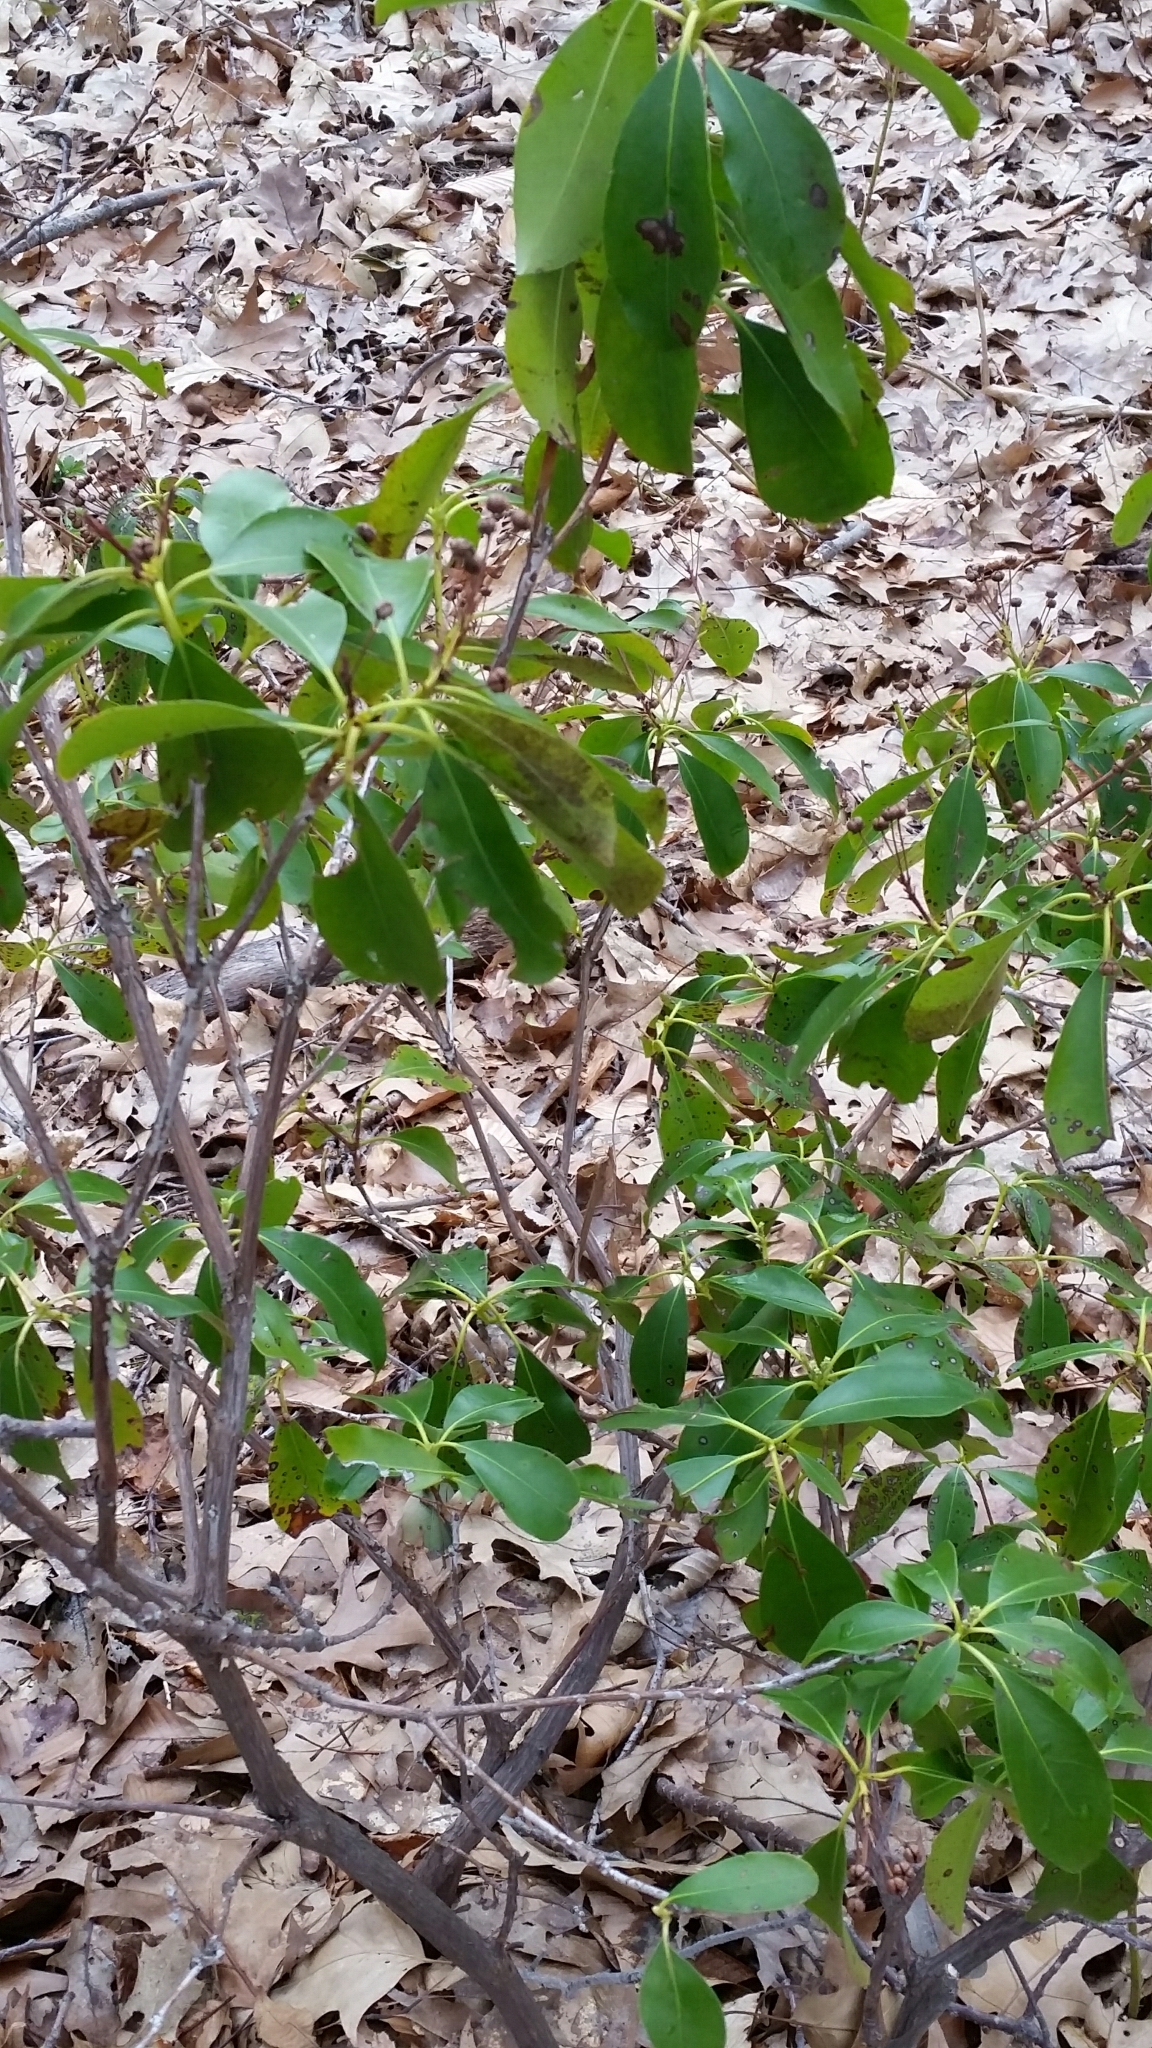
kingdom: Plantae
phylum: Tracheophyta
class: Magnoliopsida
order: Ericales
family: Ericaceae
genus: Kalmia
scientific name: Kalmia latifolia
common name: Mountain-laurel
